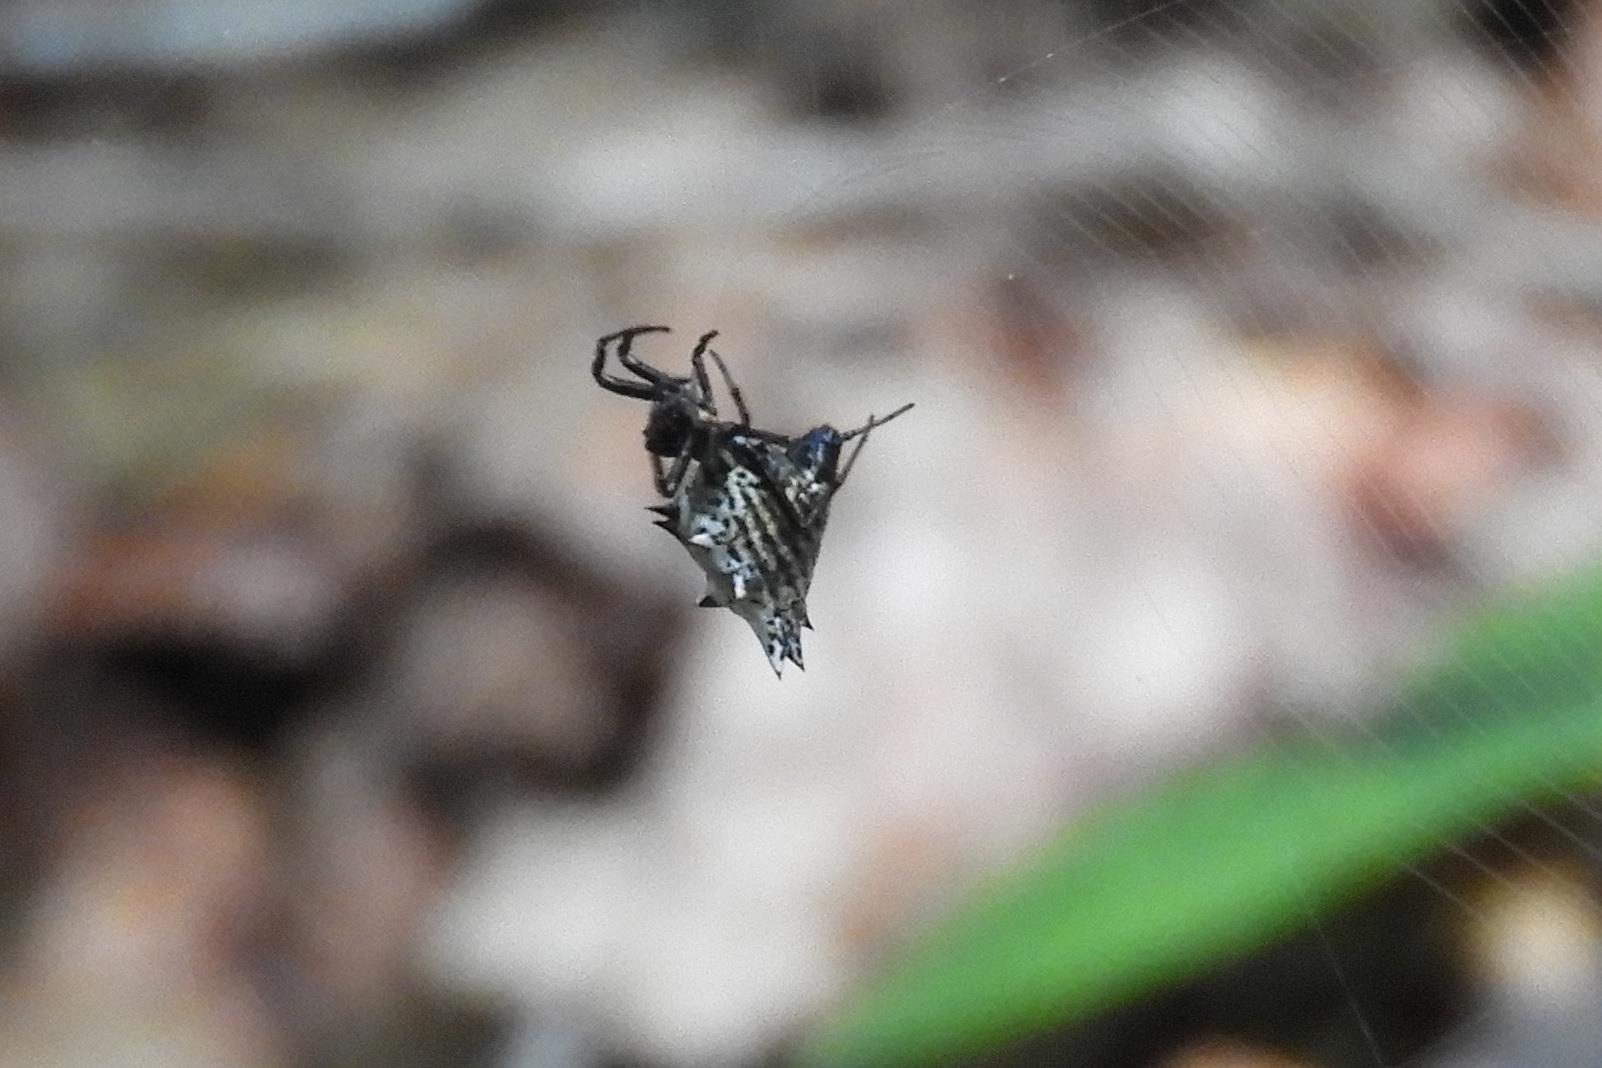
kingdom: Animalia
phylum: Arthropoda
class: Arachnida
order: Araneae
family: Araneidae
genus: Micrathena
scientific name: Micrathena gracilis
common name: Orb weavers
